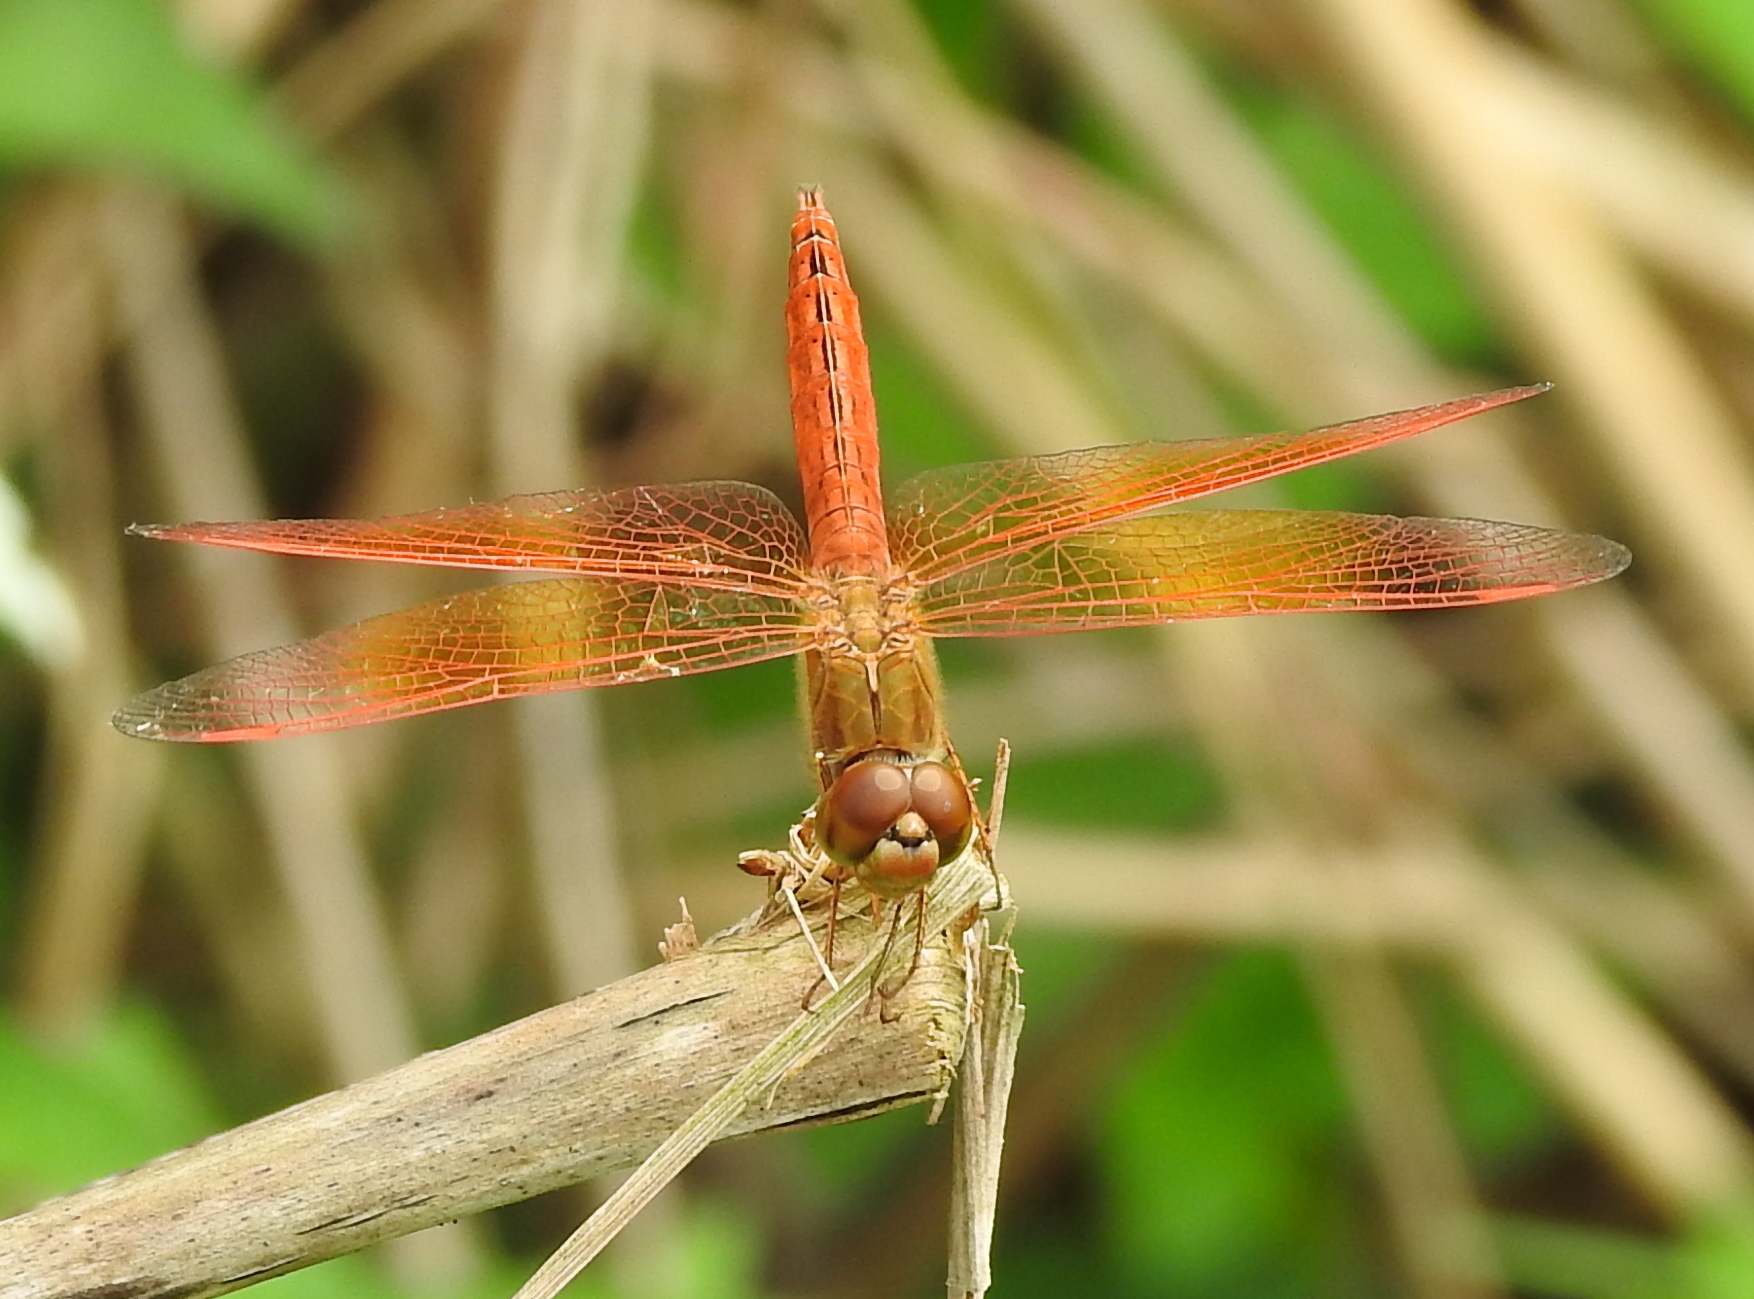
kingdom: Animalia
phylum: Arthropoda
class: Insecta
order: Odonata
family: Libellulidae
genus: Brachythemis
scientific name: Brachythemis contaminata
